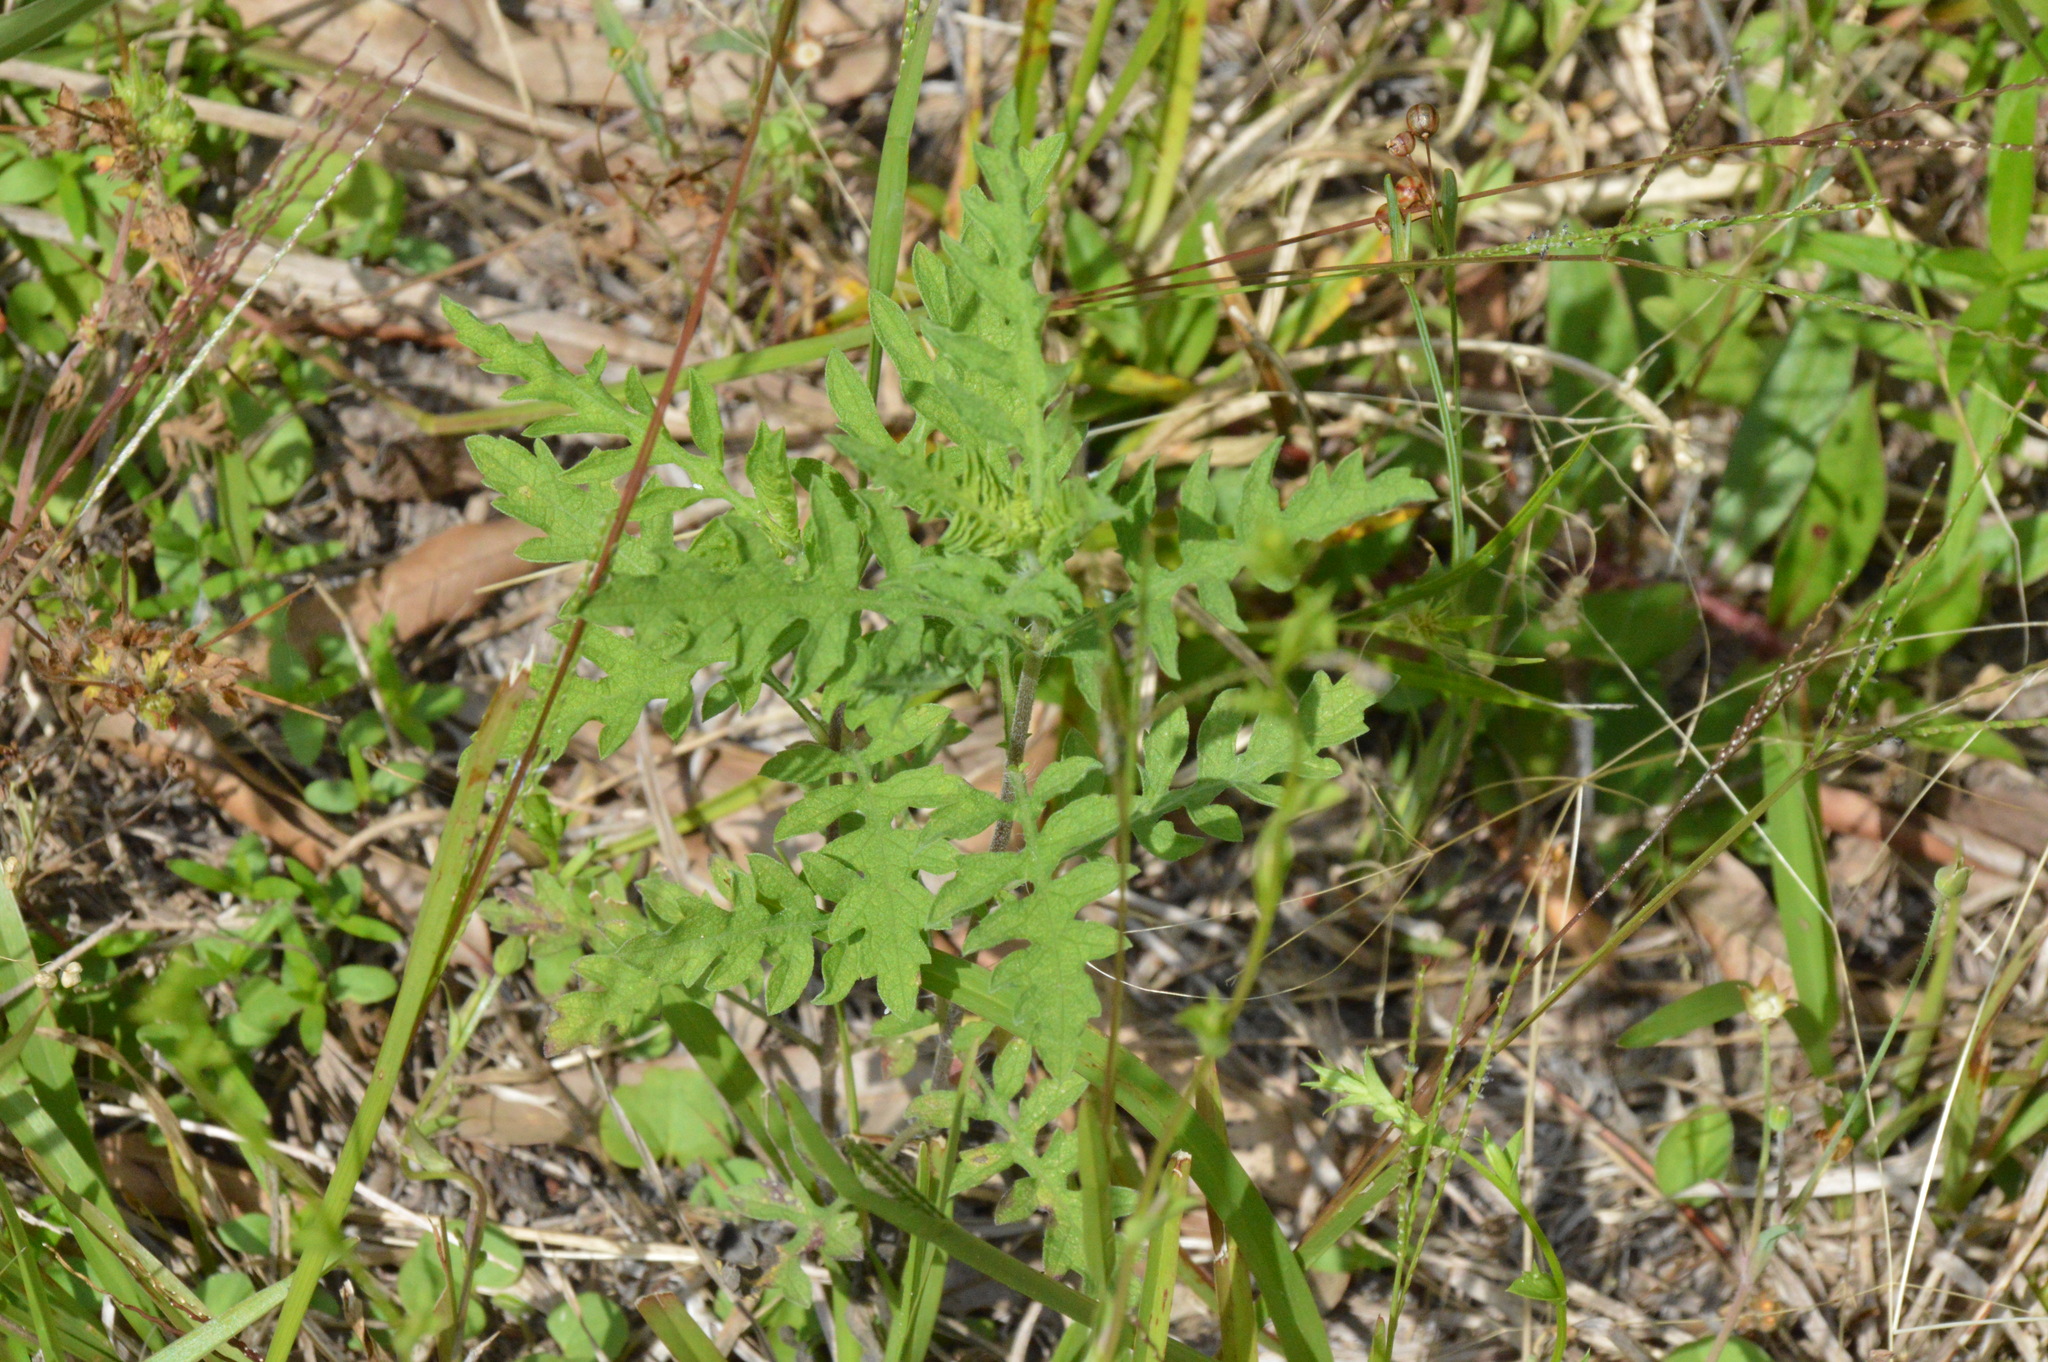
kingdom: Plantae
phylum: Tracheophyta
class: Magnoliopsida
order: Asterales
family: Asteraceae
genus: Ambrosia
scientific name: Ambrosia psilostachya
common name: Perennial ragweed
